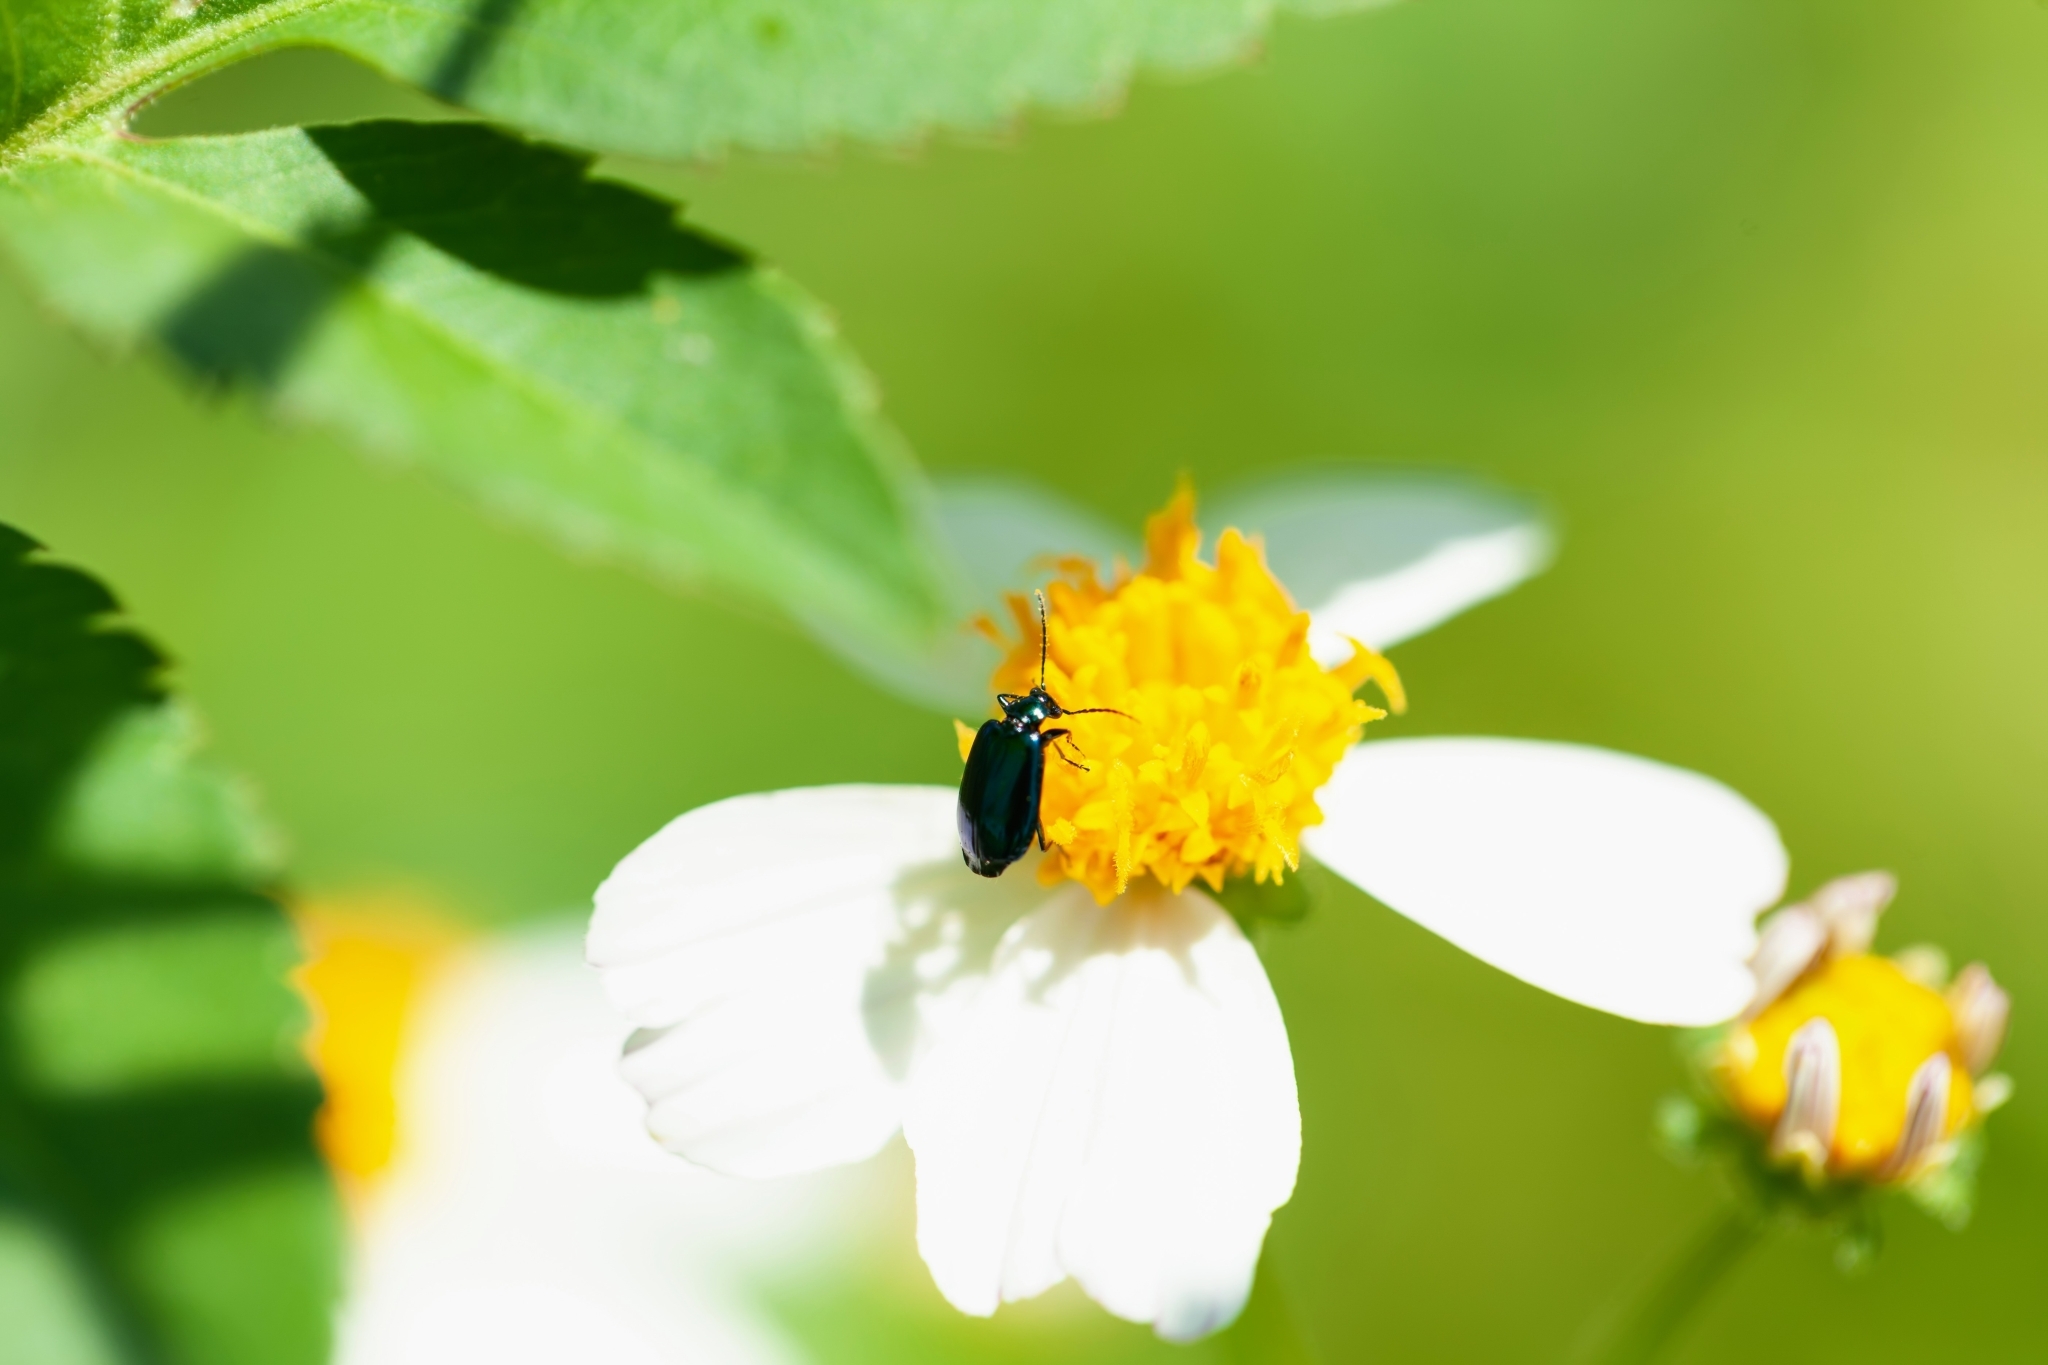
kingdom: Animalia
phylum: Arthropoda
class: Insecta
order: Coleoptera
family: Carabidae
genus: Lebia
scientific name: Lebia viridis
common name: Flower lebia beetle
